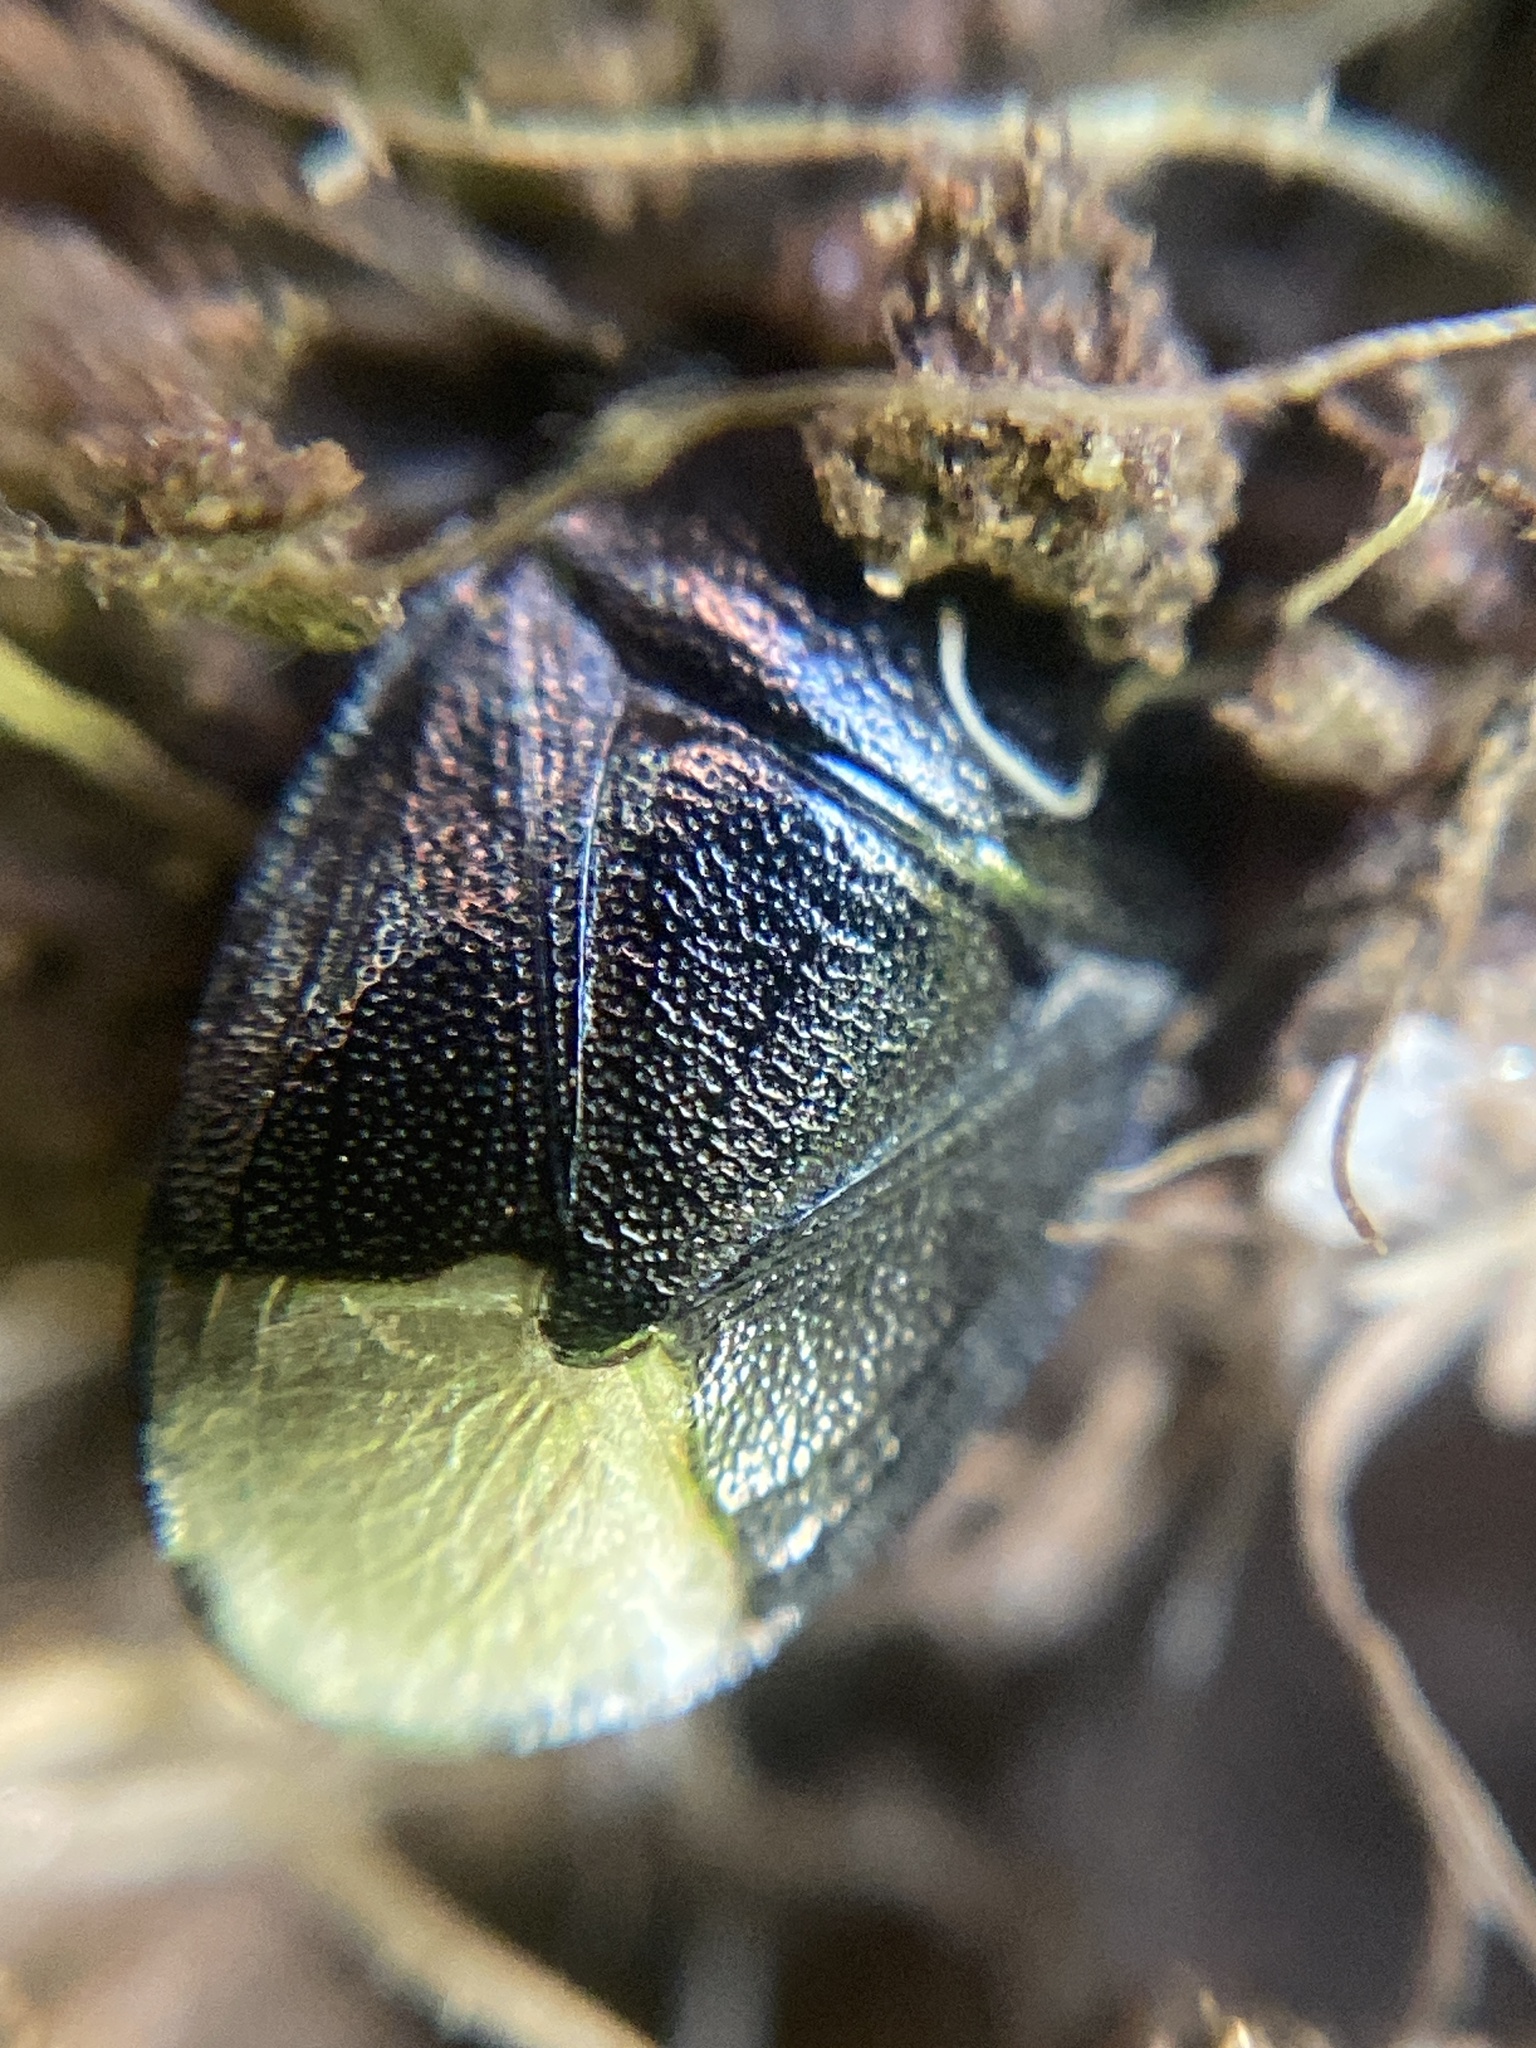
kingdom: Animalia
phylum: Arthropoda
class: Insecta
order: Hemiptera
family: Cydnidae
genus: Sehirus
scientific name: Sehirus luctuosus
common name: Forget-me-not shieldbug
